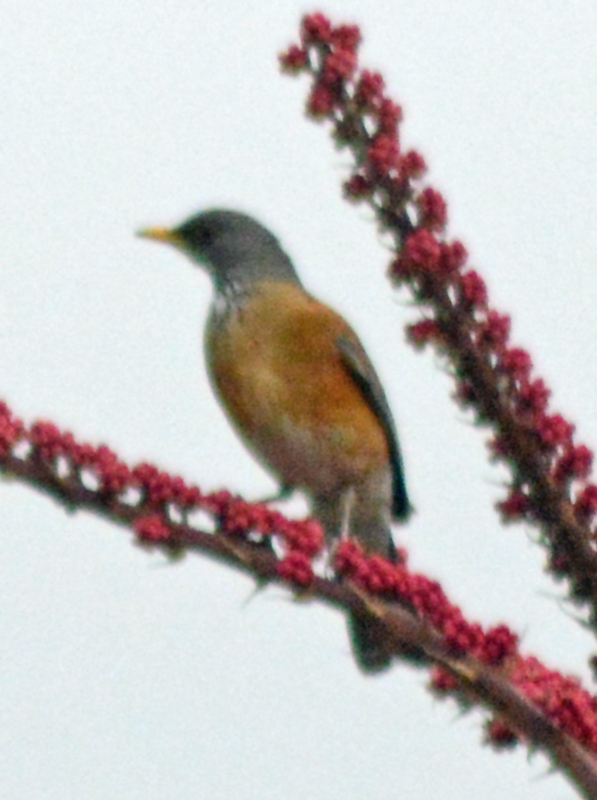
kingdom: Animalia
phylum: Chordata
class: Aves
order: Passeriformes
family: Turdidae
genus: Turdus
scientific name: Turdus rufopalliatus
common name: Rufous-backed robin
